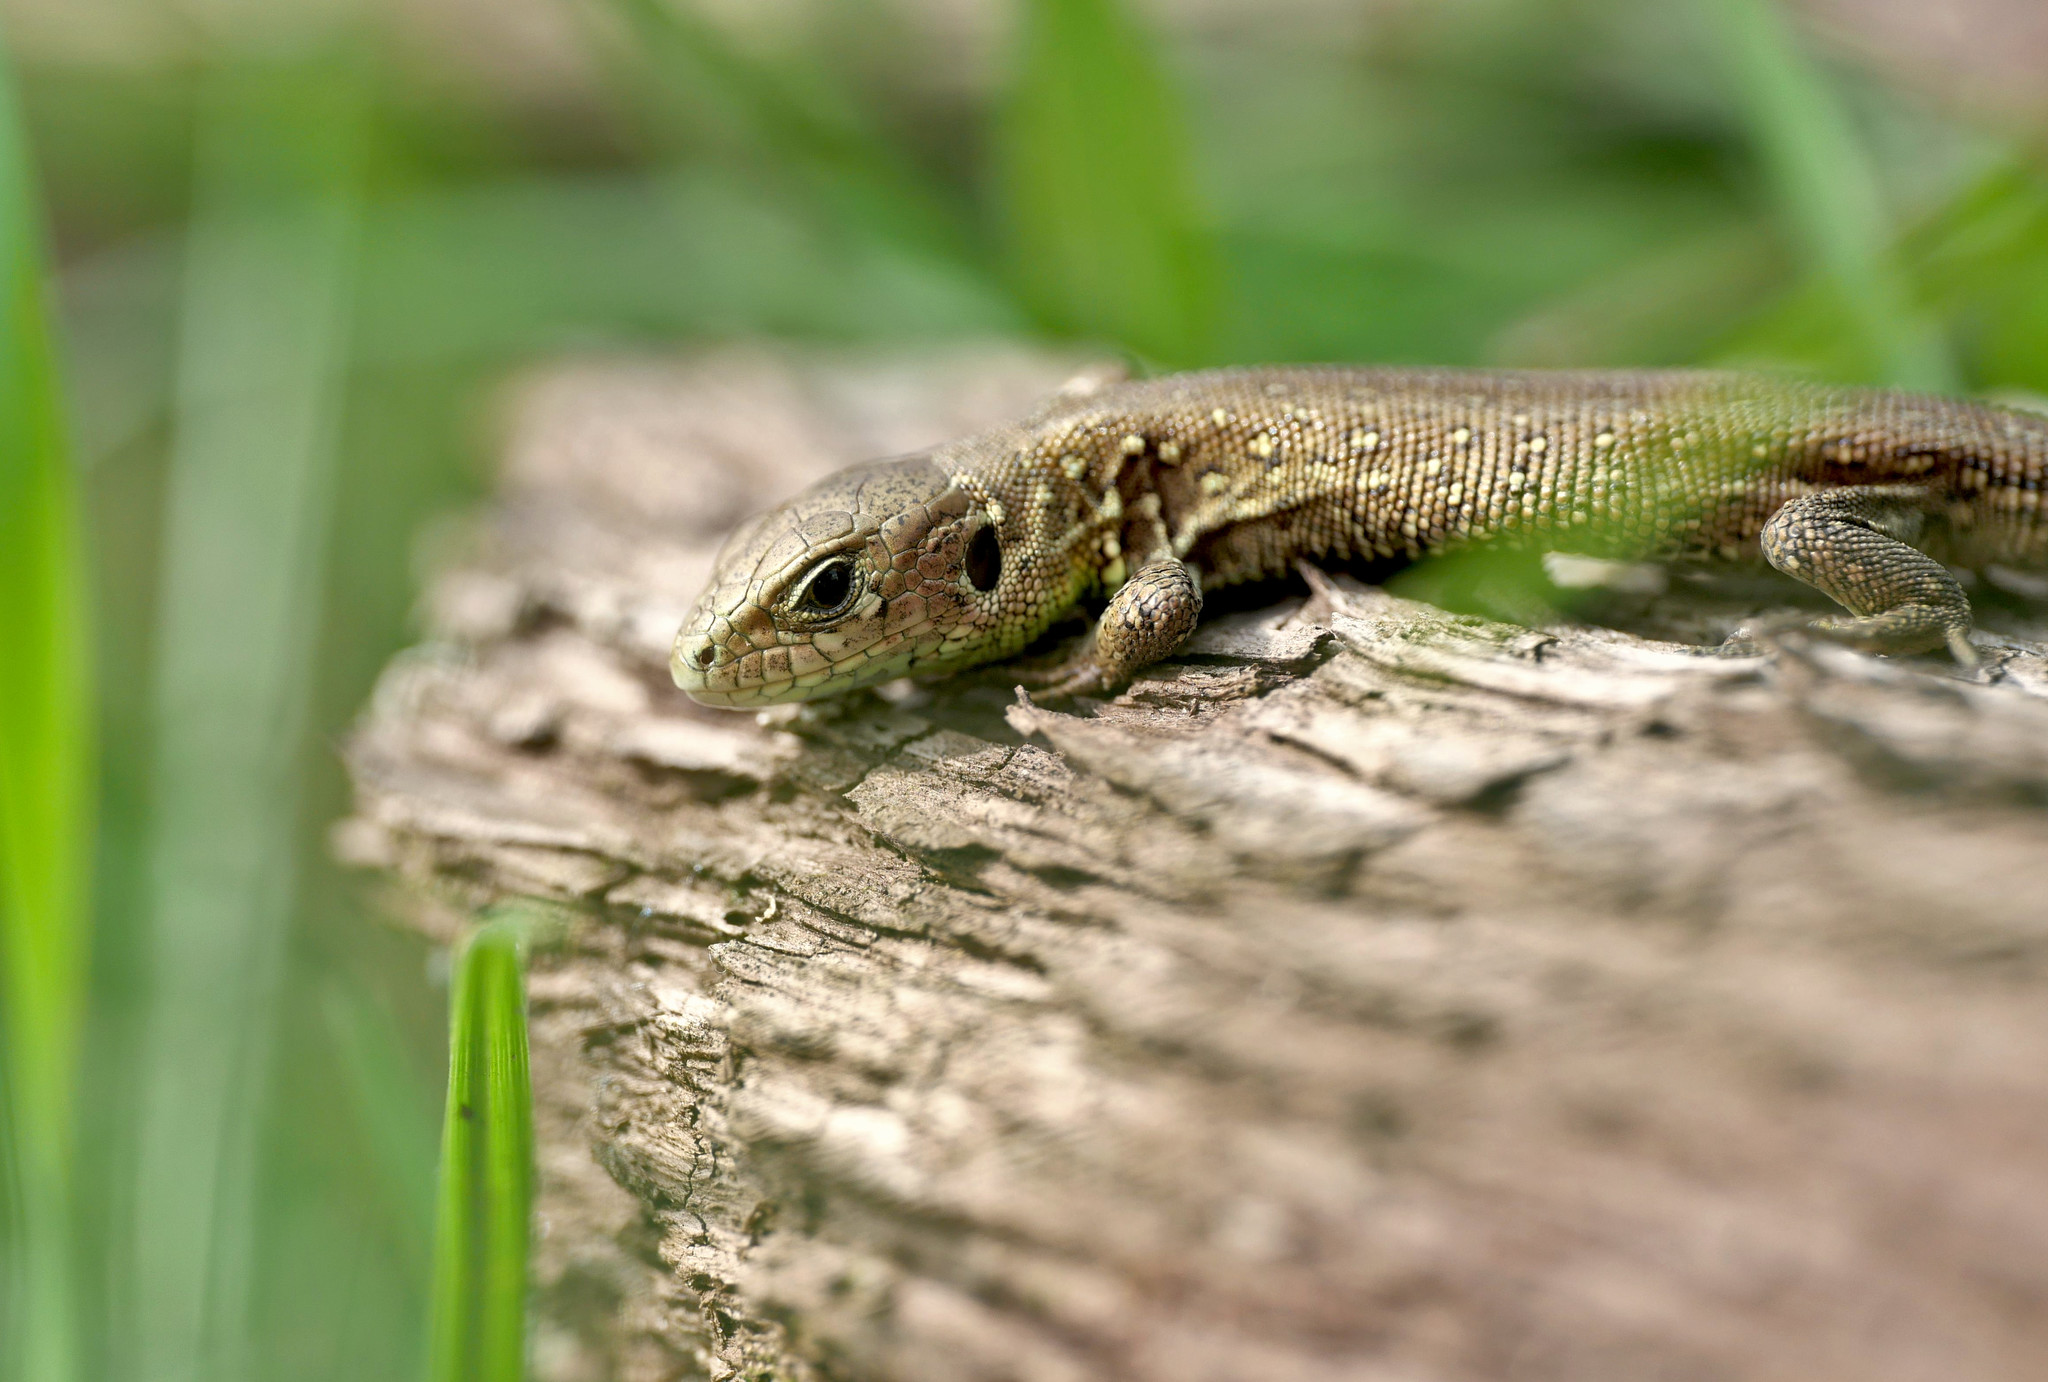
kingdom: Animalia
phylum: Chordata
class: Squamata
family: Lacertidae
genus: Lacerta
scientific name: Lacerta agilis
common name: Sand lizard
